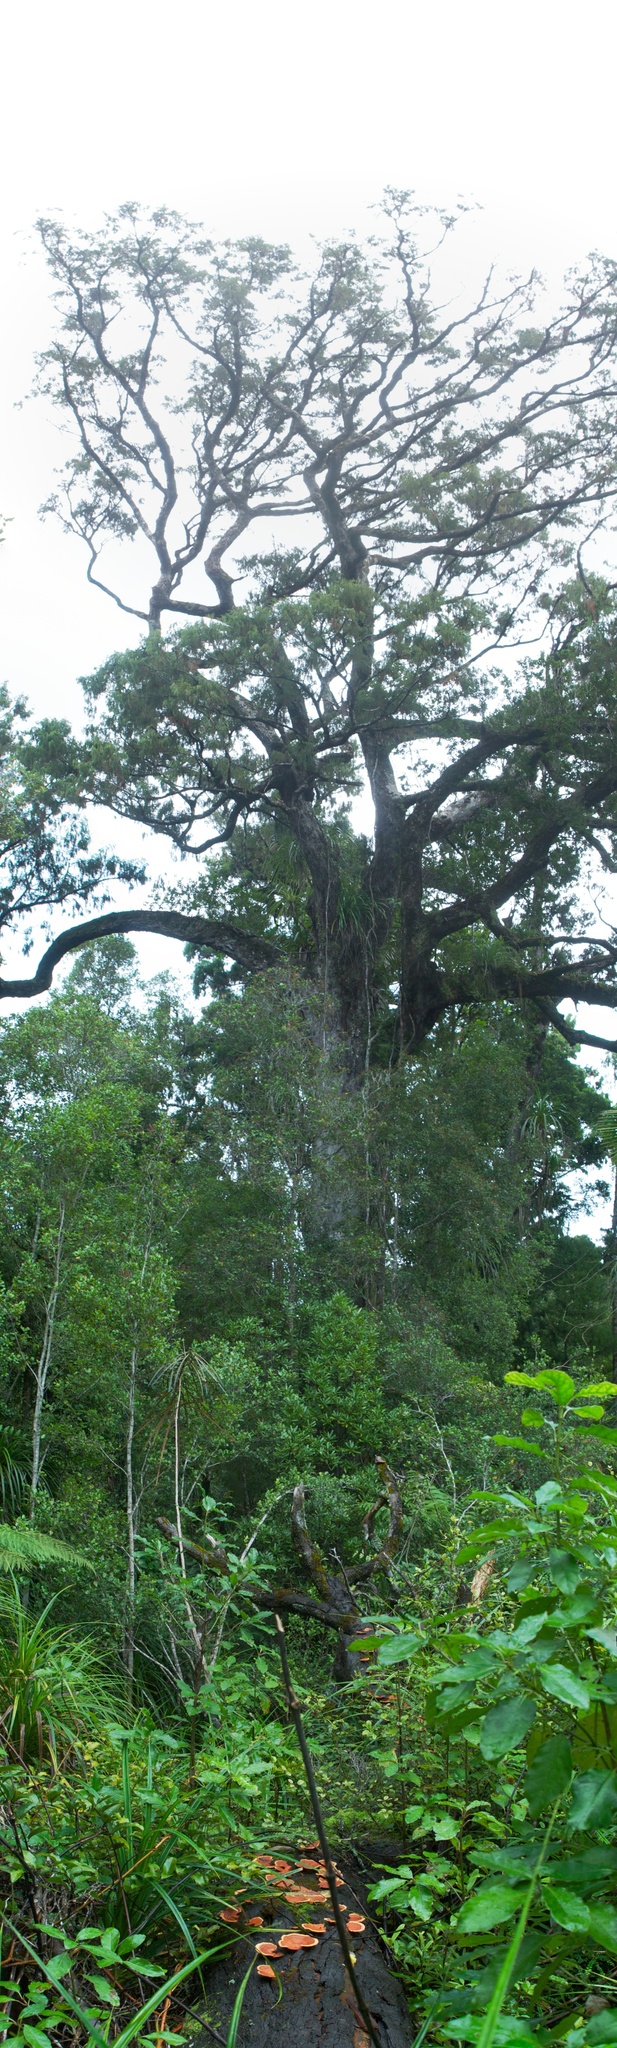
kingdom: Fungi
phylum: Basidiomycota
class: Agaricomycetes
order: Polyporales
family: Polyporaceae
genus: Trametes
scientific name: Trametes coccinea
